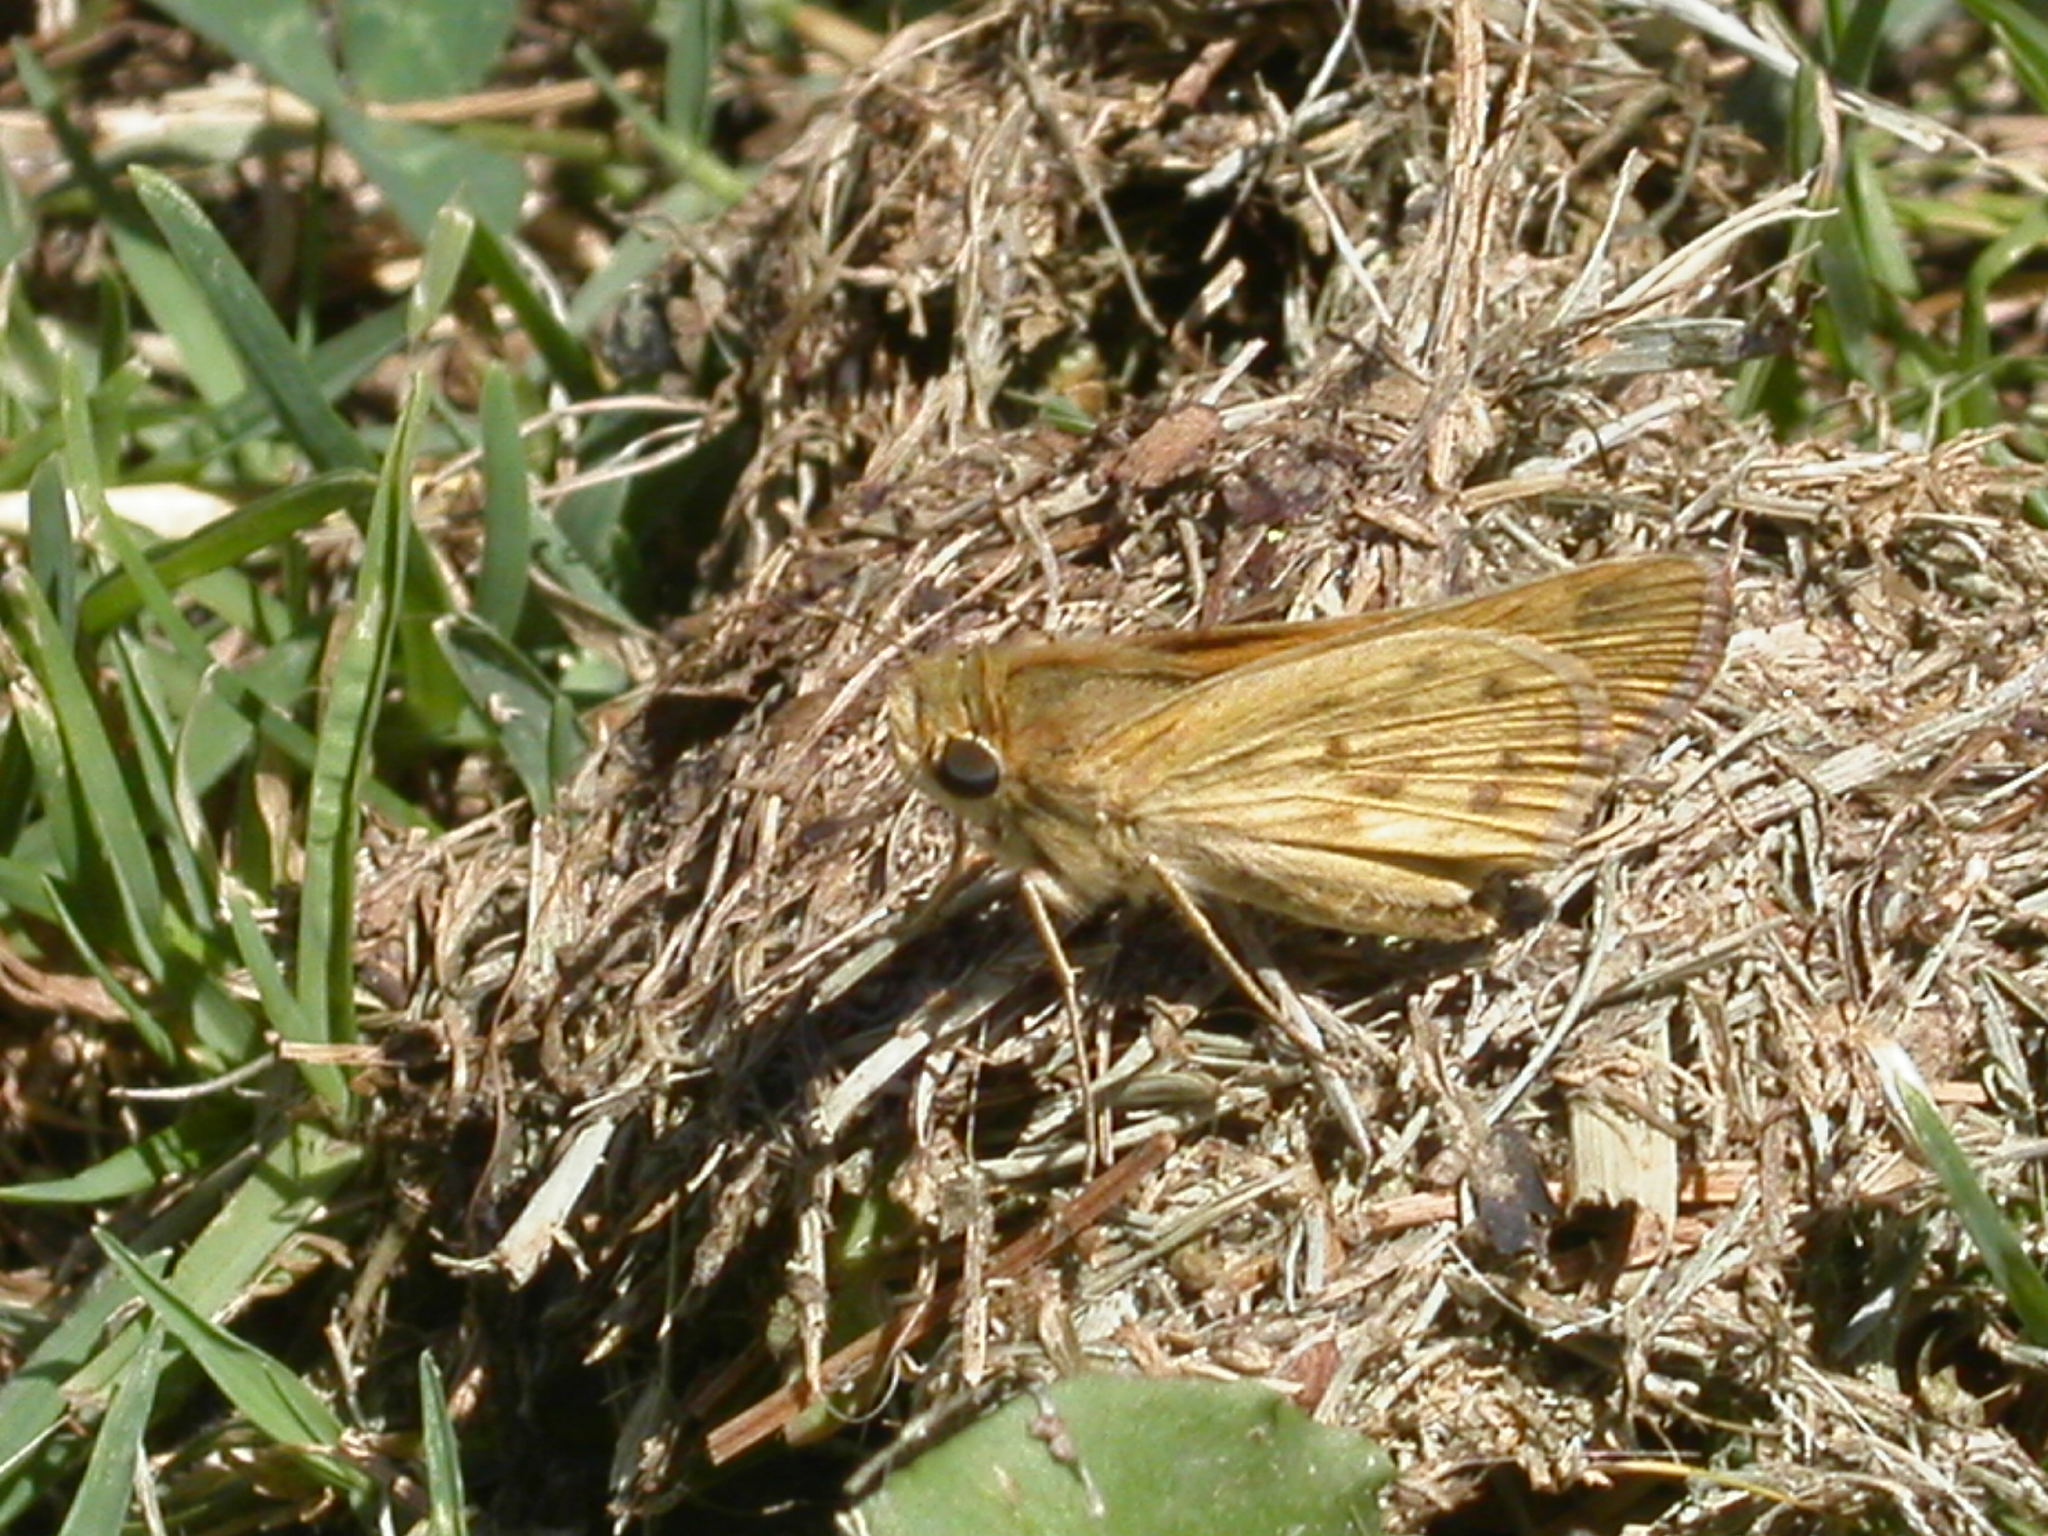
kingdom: Animalia
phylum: Arthropoda
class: Insecta
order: Lepidoptera
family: Hesperiidae
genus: Hylephila
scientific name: Hylephila phyleus
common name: Fiery skipper
